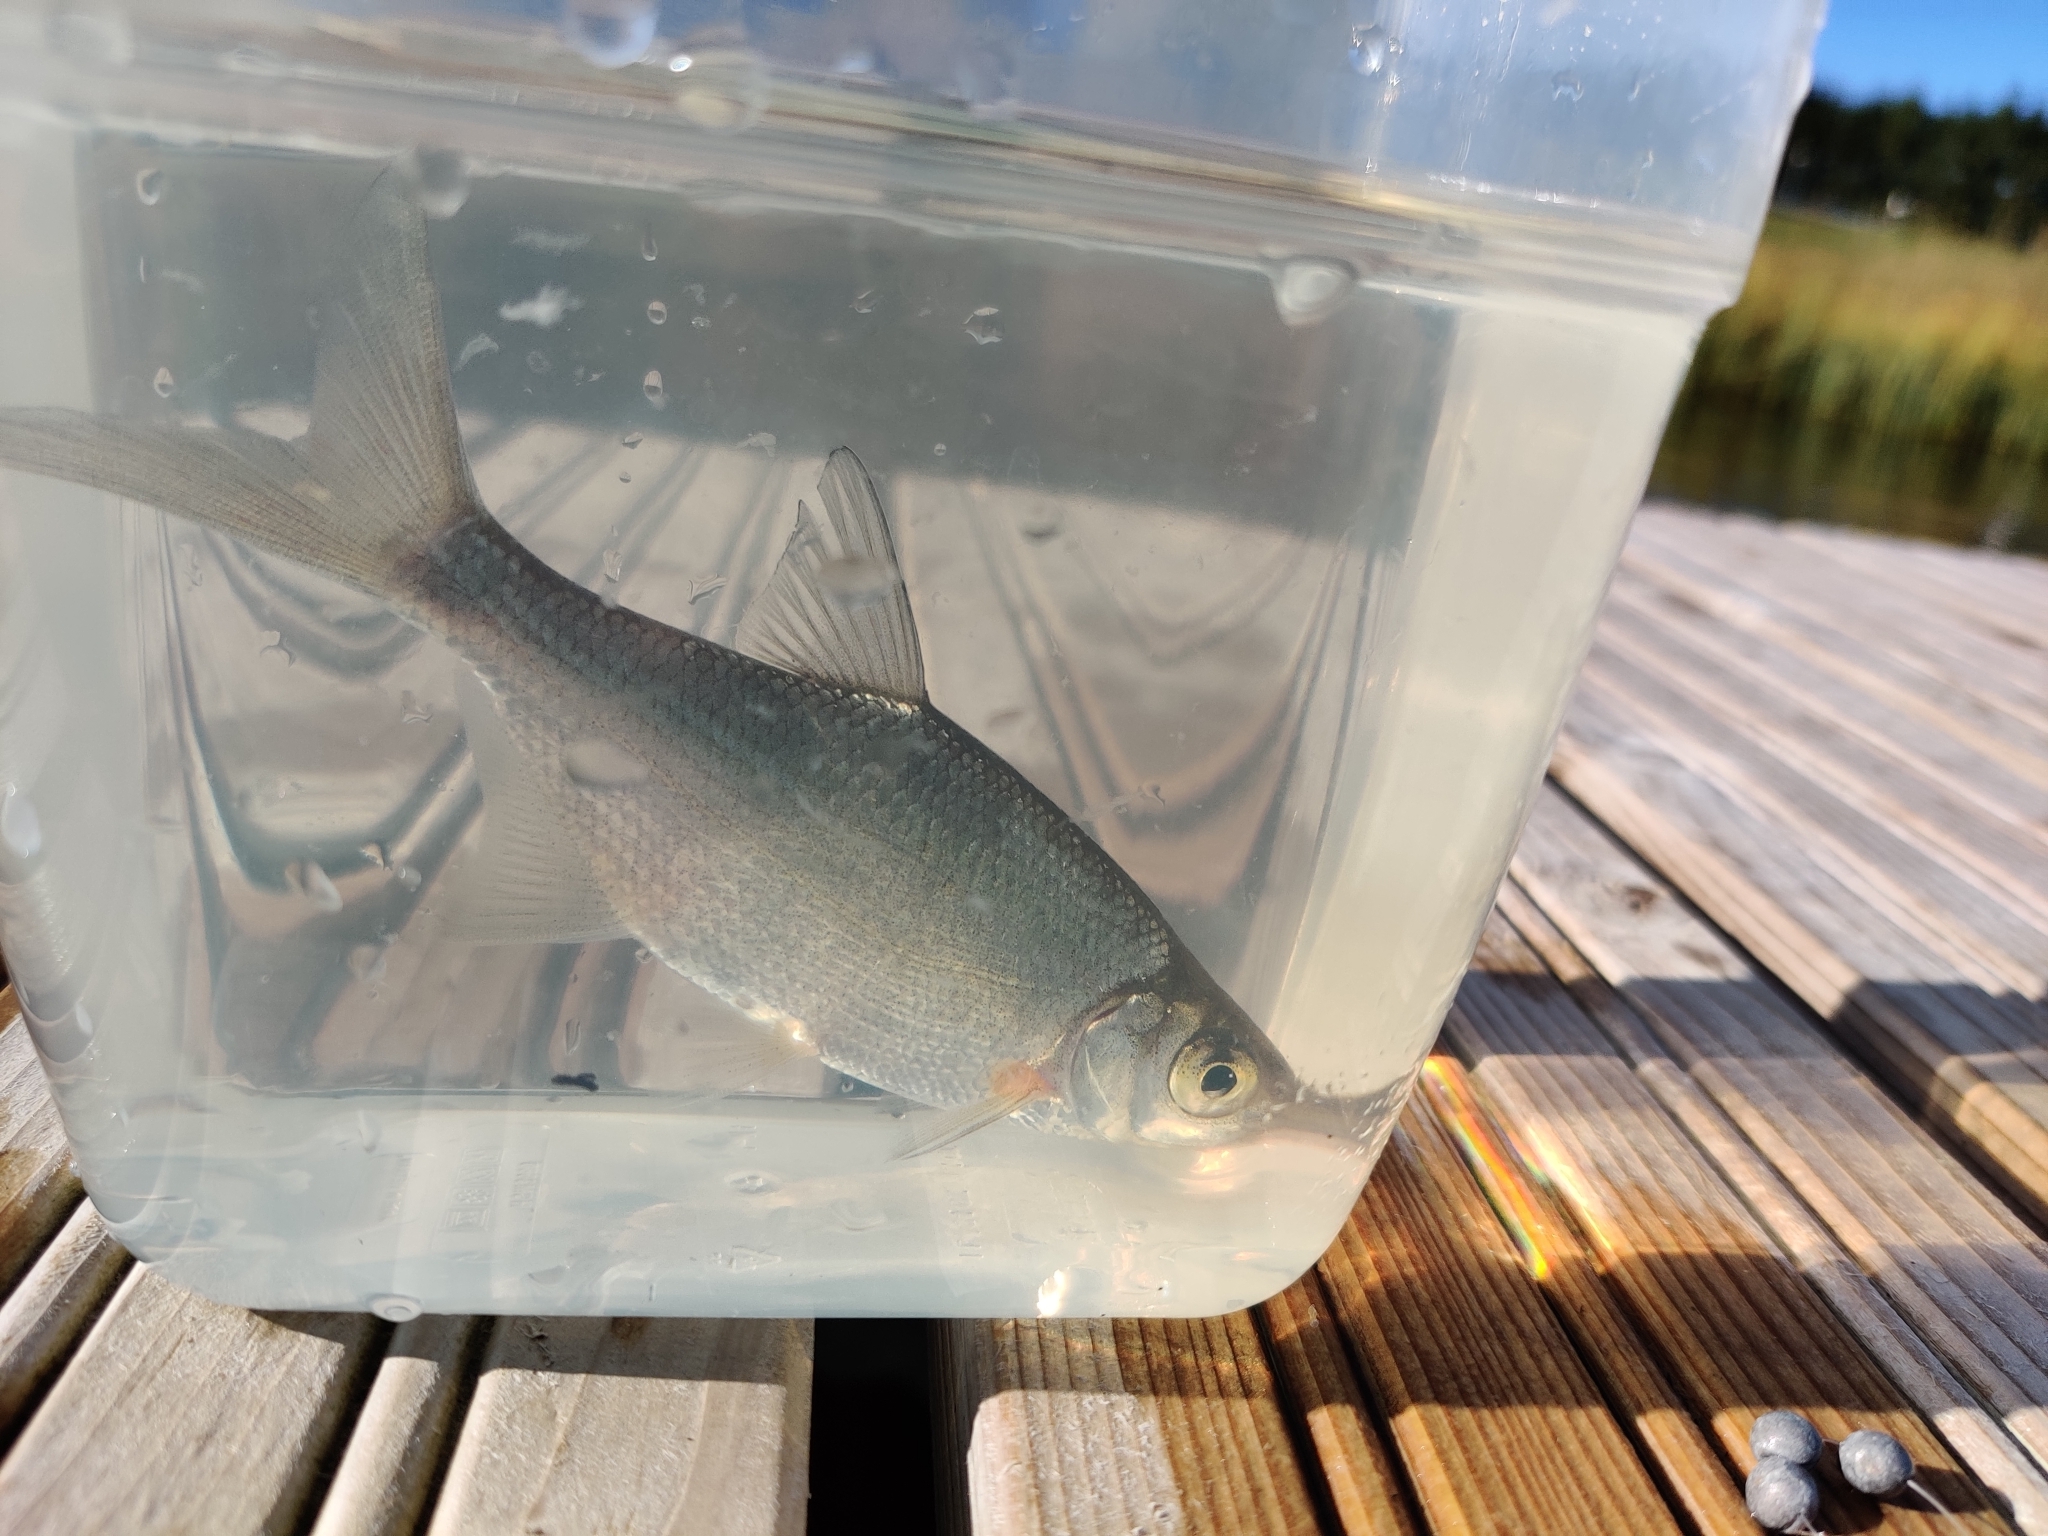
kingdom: Animalia
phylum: Chordata
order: Cypriniformes
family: Cyprinidae
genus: Blicca
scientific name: Blicca bjoerkna
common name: White bream
